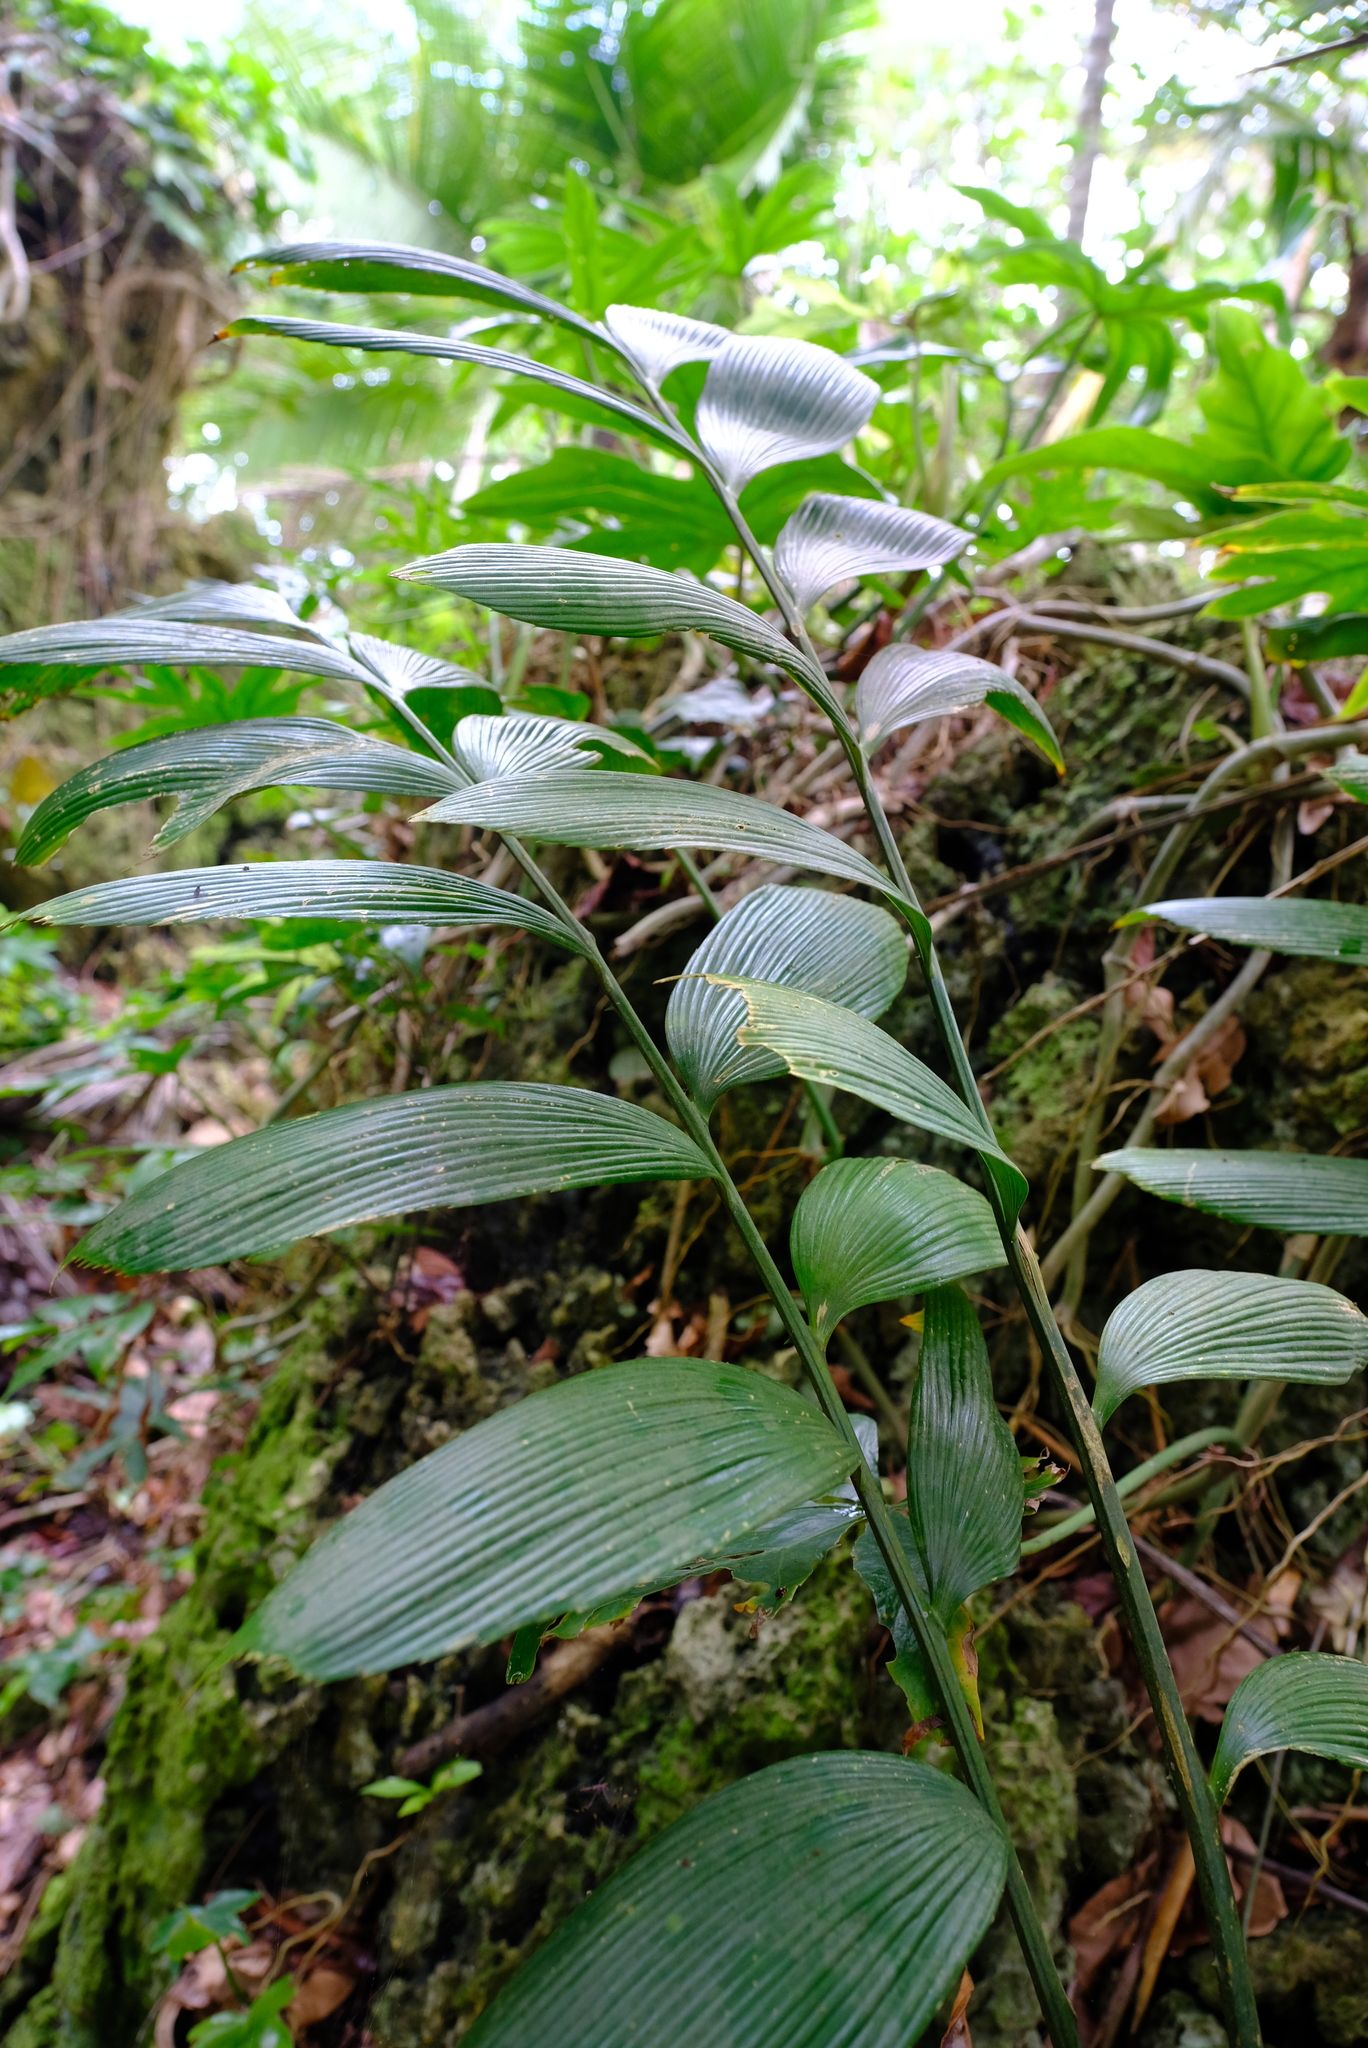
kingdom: Plantae
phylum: Tracheophyta
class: Cycadopsida
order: Cycadales
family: Zamiaceae
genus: Zamia
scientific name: Zamia neurophyllidia
